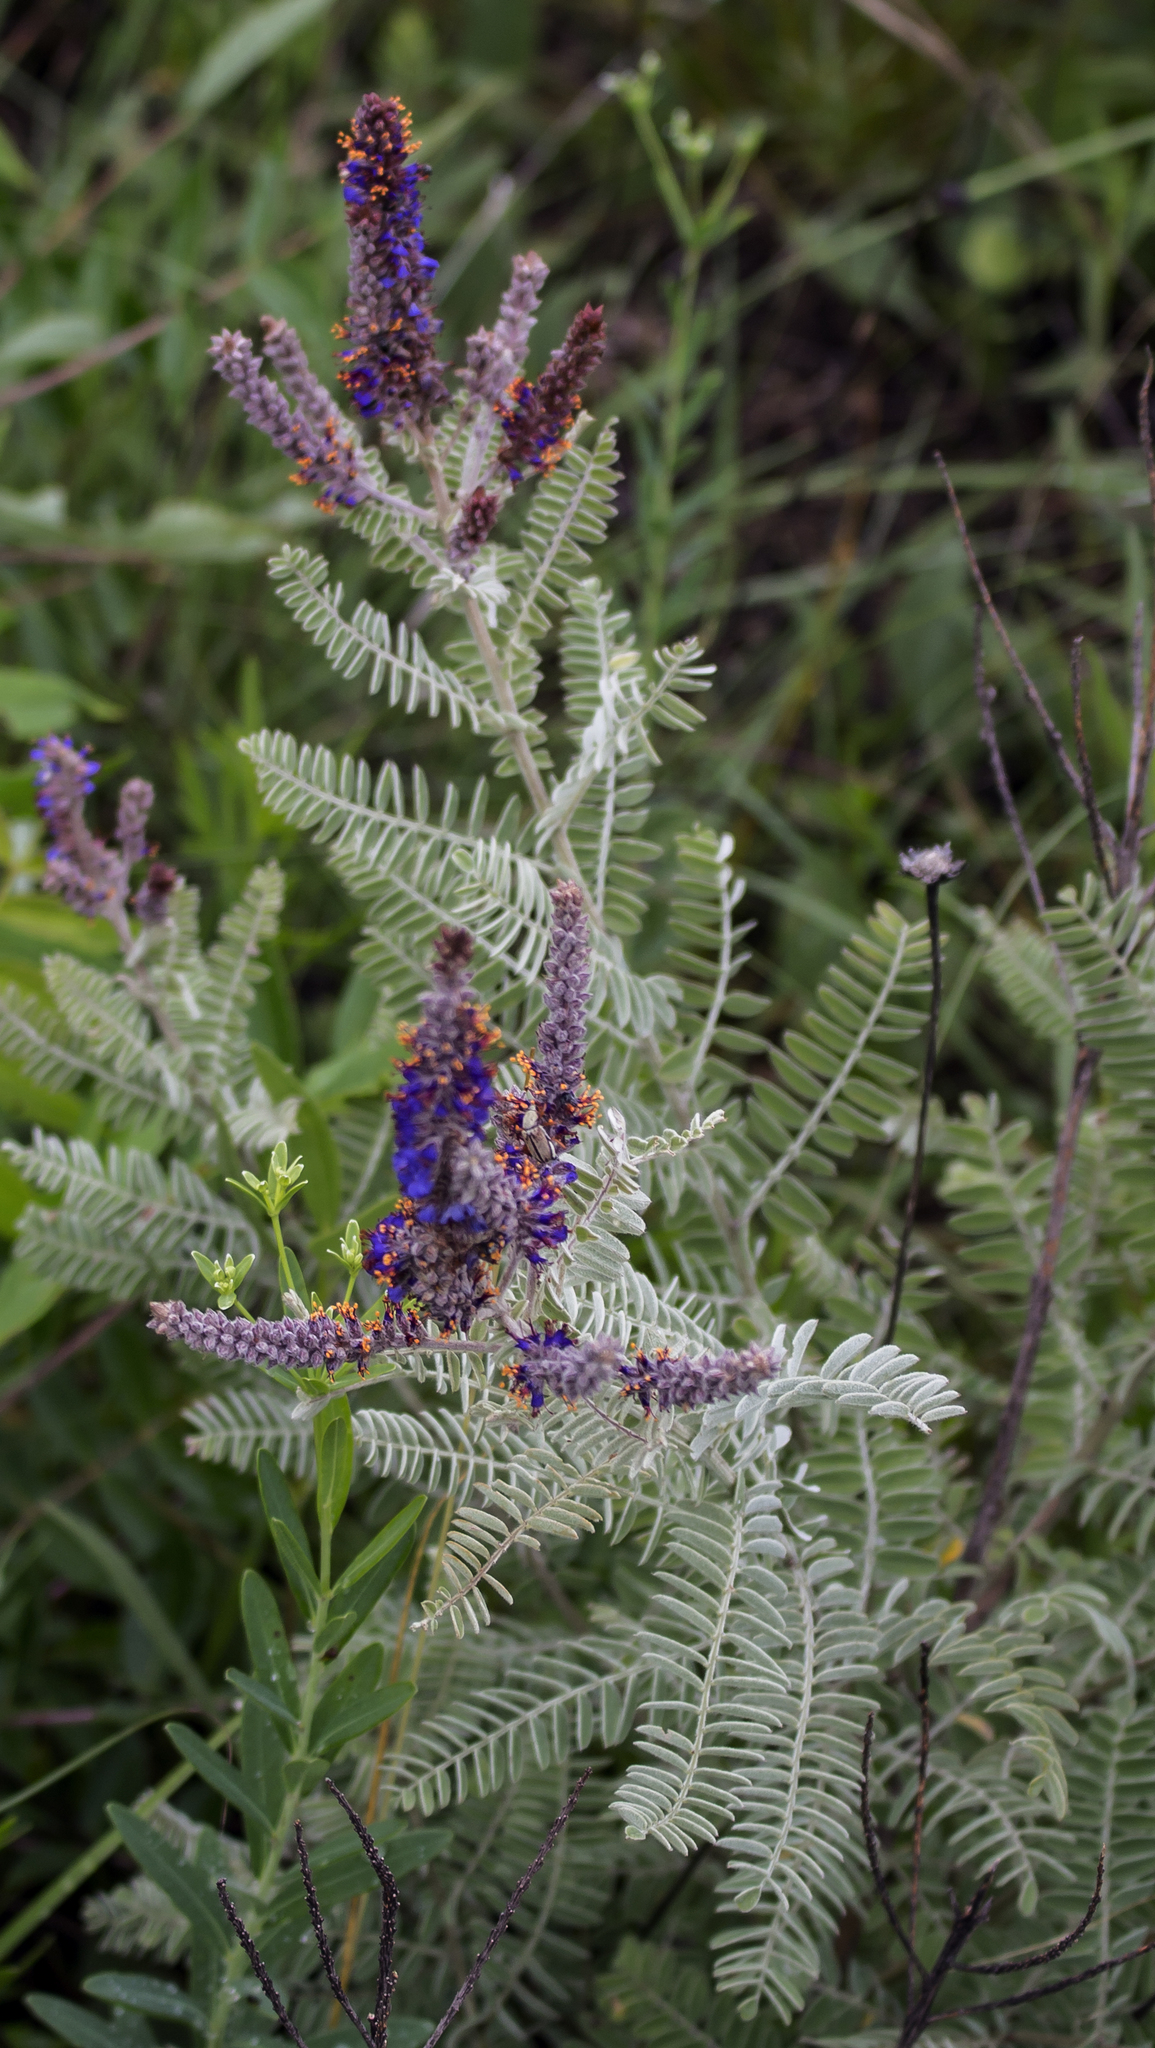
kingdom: Plantae
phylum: Tracheophyta
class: Magnoliopsida
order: Fabales
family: Fabaceae
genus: Amorpha
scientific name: Amorpha canescens
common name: Leadplant
